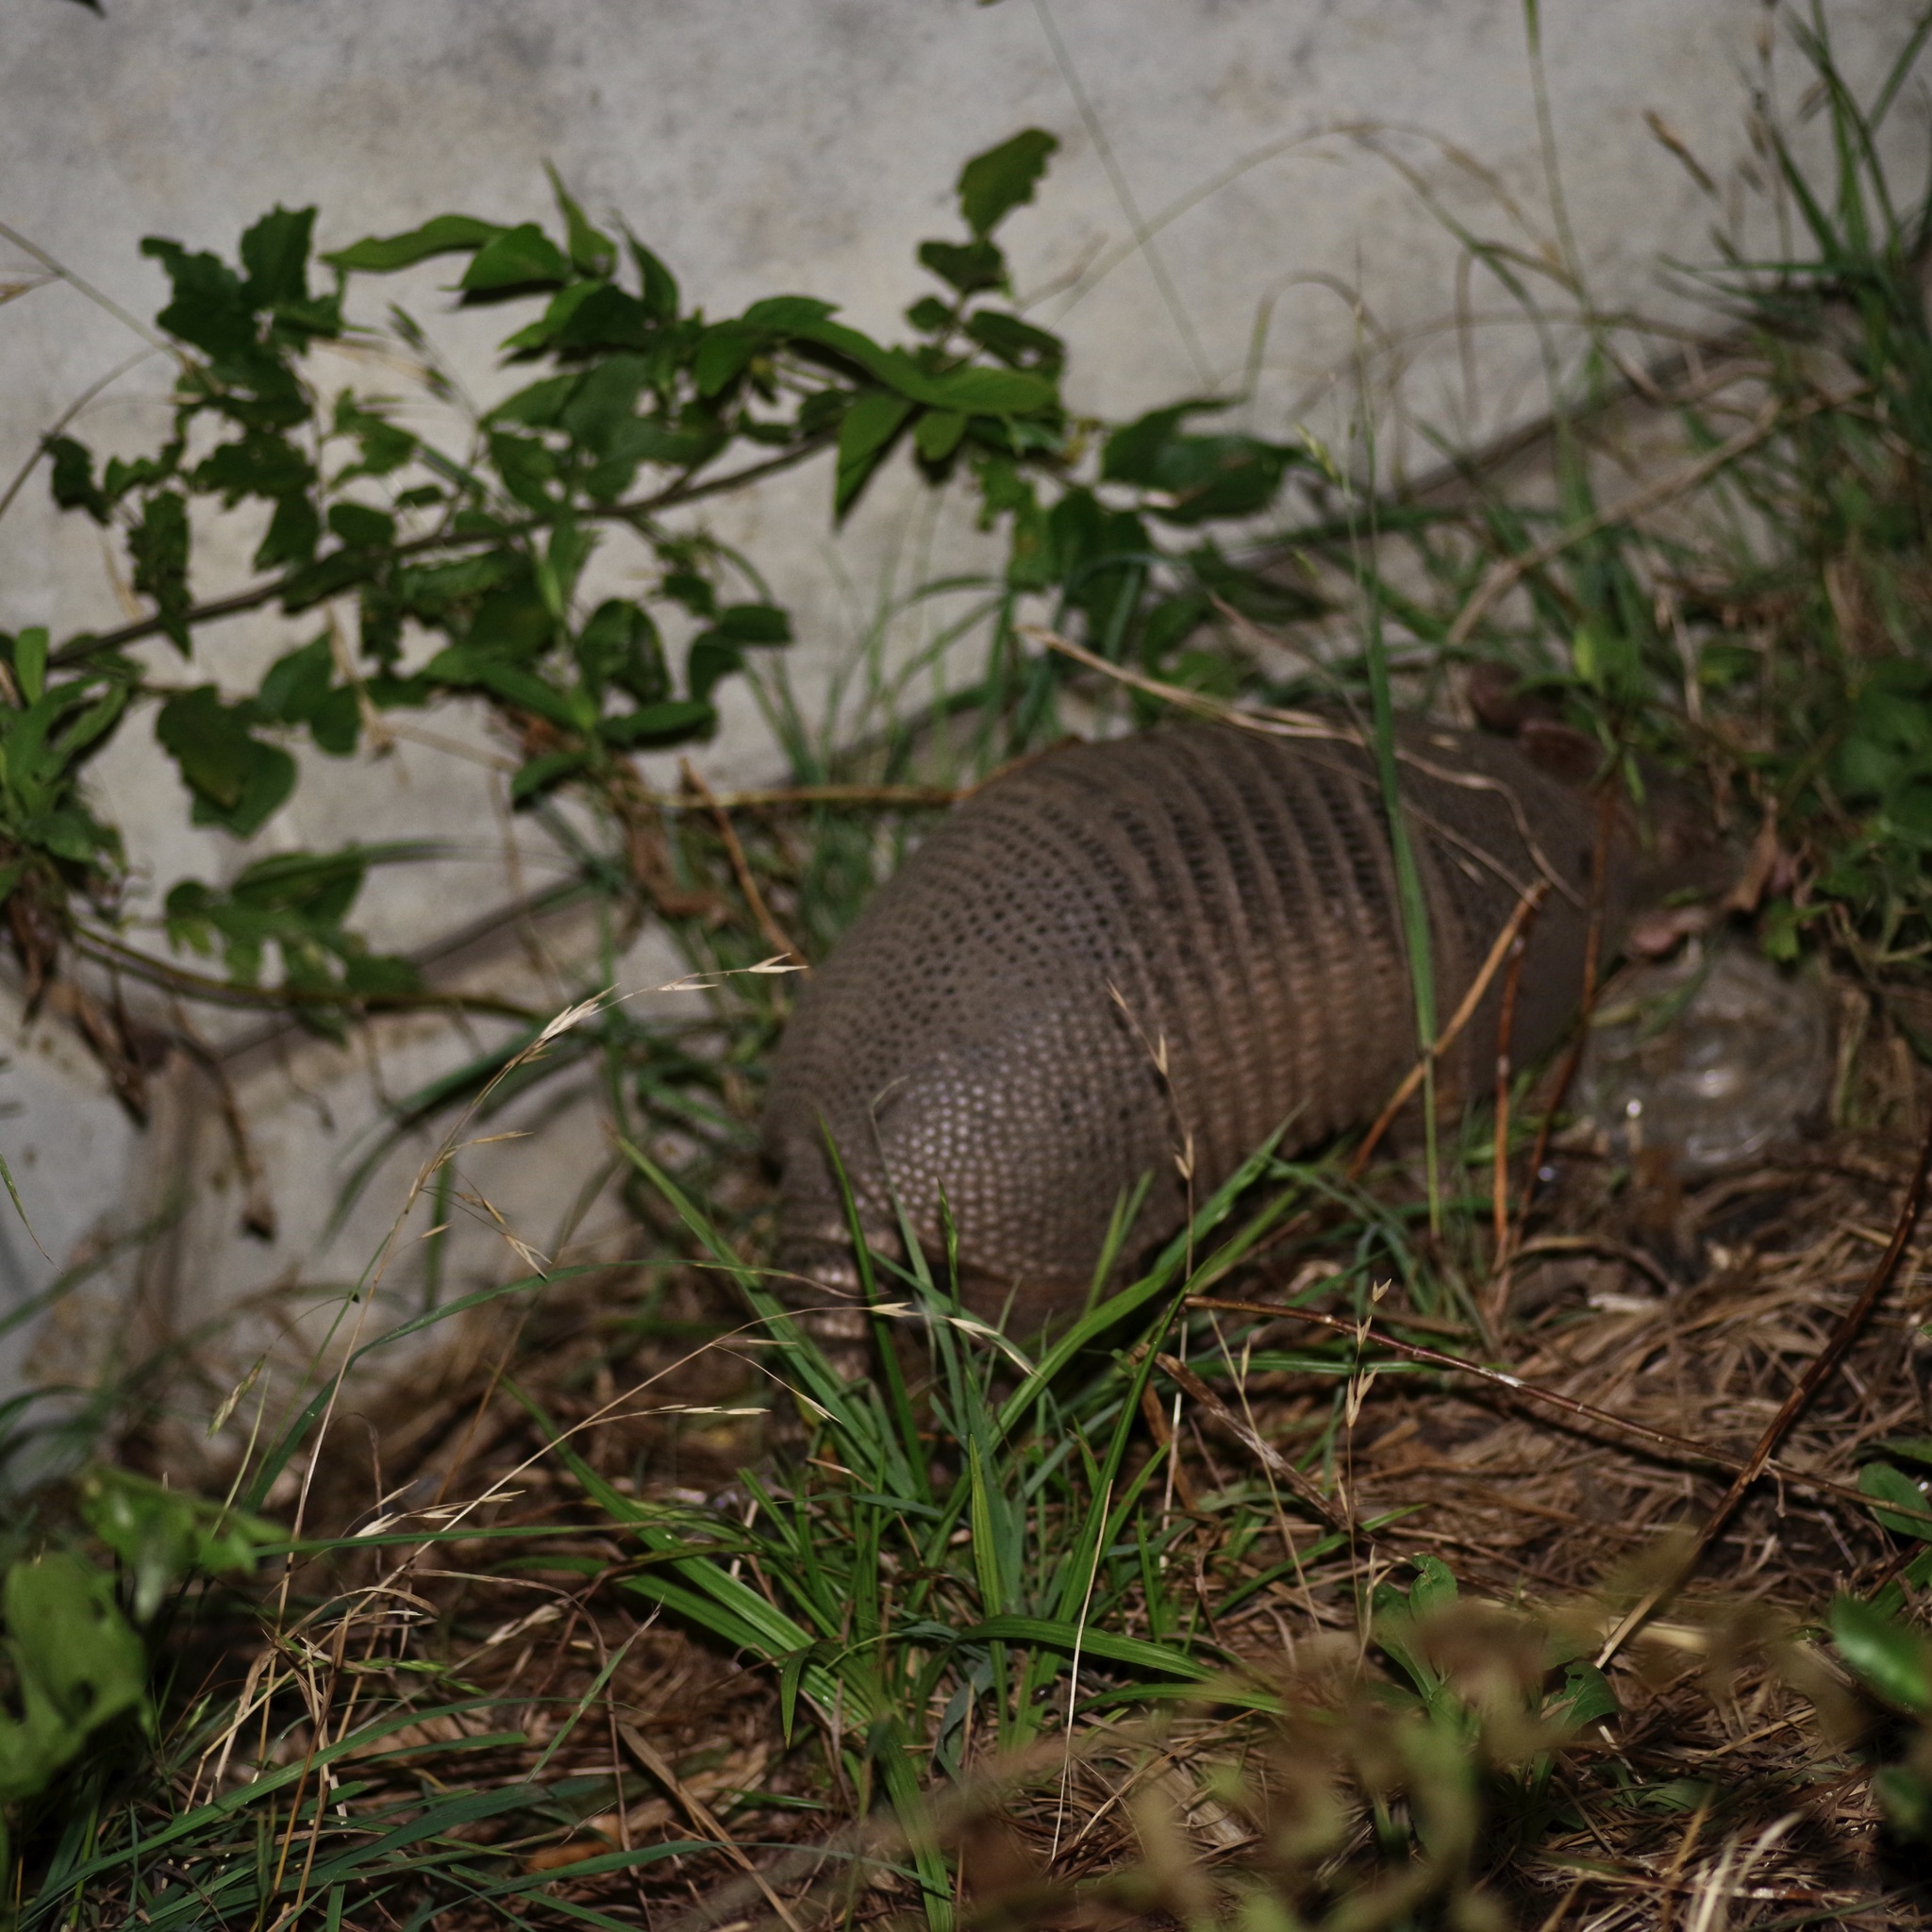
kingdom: Animalia
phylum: Chordata
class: Mammalia
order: Cingulata
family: Dasypodidae
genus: Dasypus
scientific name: Dasypus novemcinctus
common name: Nine-banded armadillo
